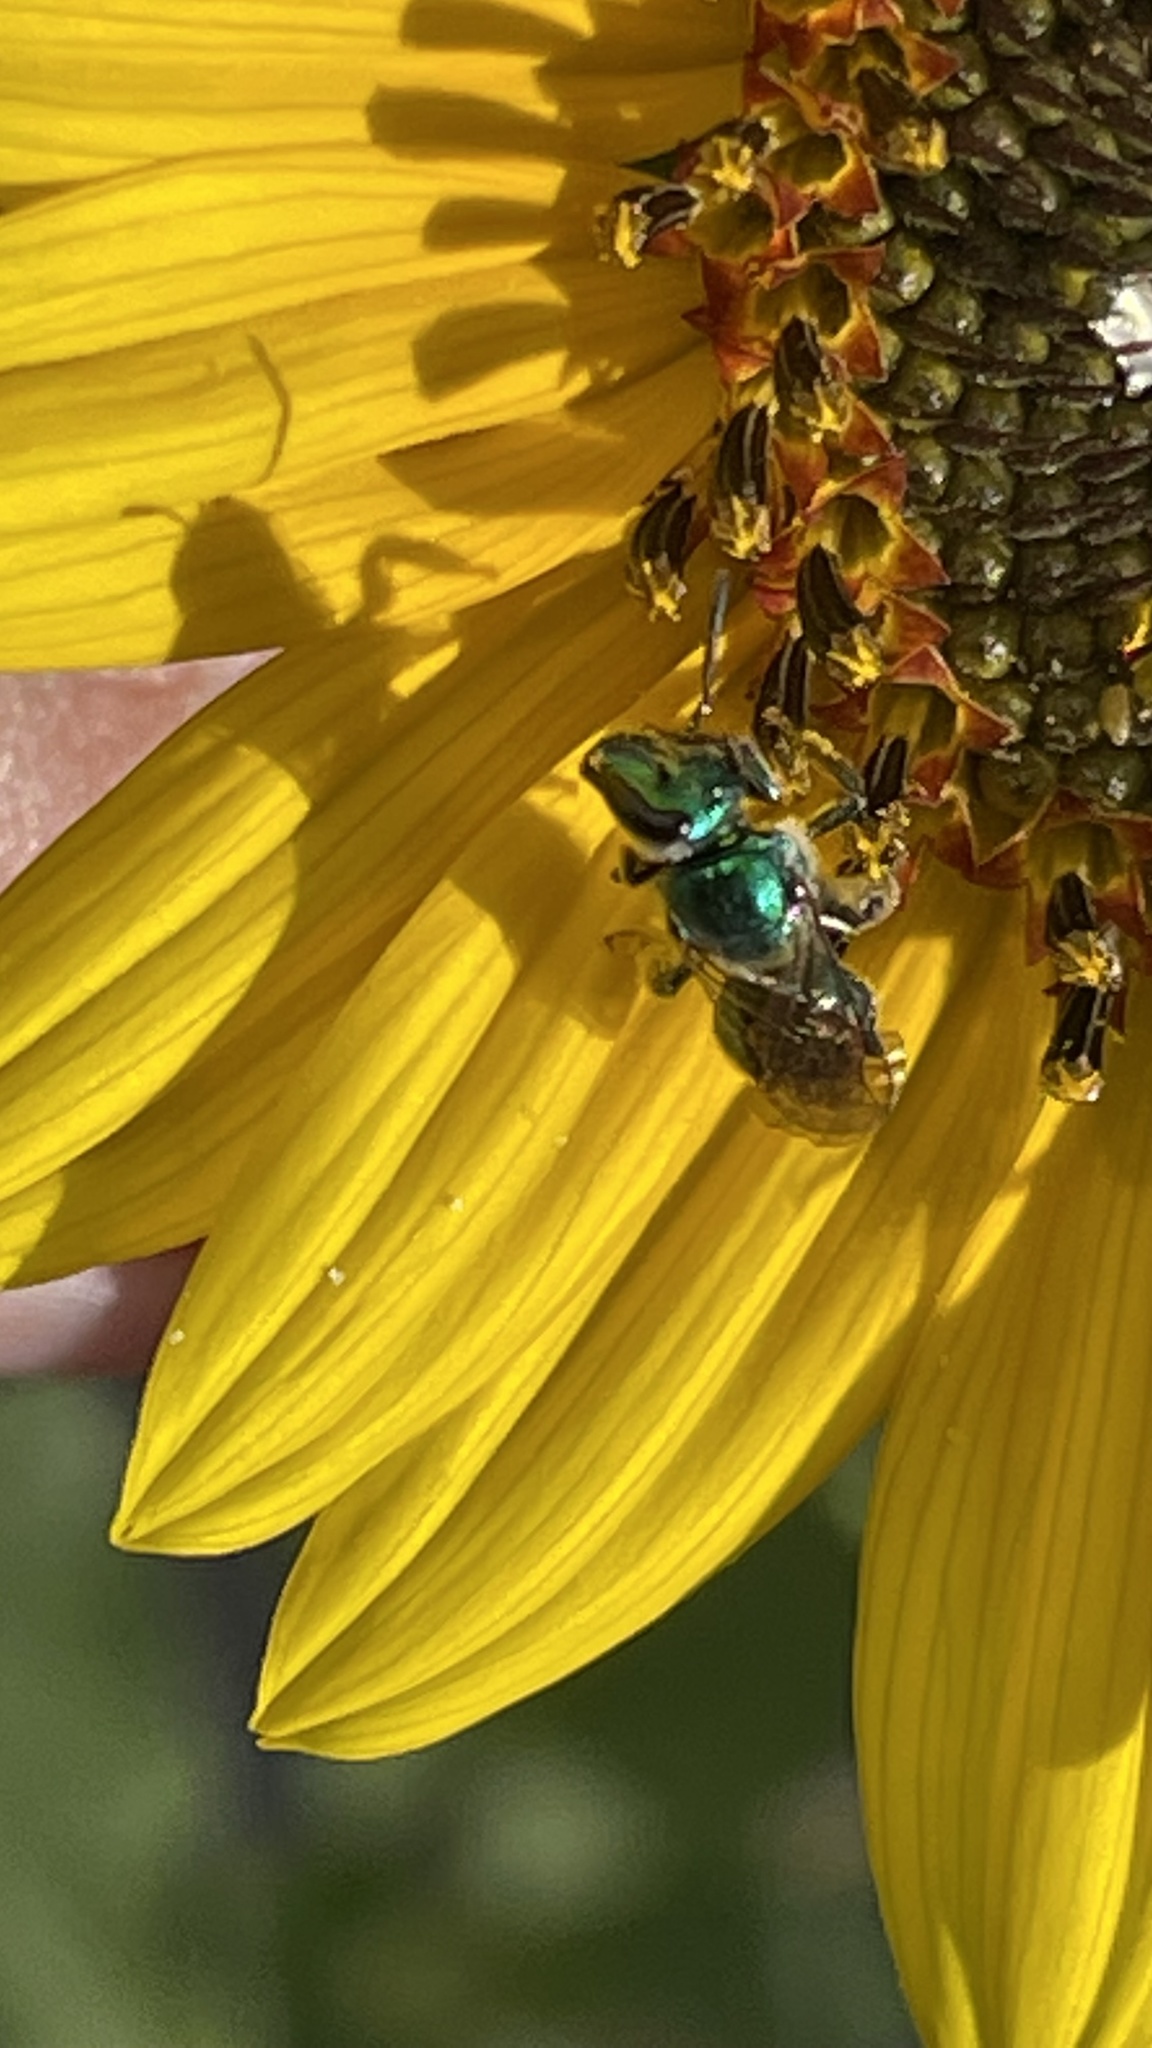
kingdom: Plantae
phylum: Tracheophyta
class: Magnoliopsida
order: Asterales
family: Asteraceae
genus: Helianthus
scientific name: Helianthus annuus
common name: Sunflower
